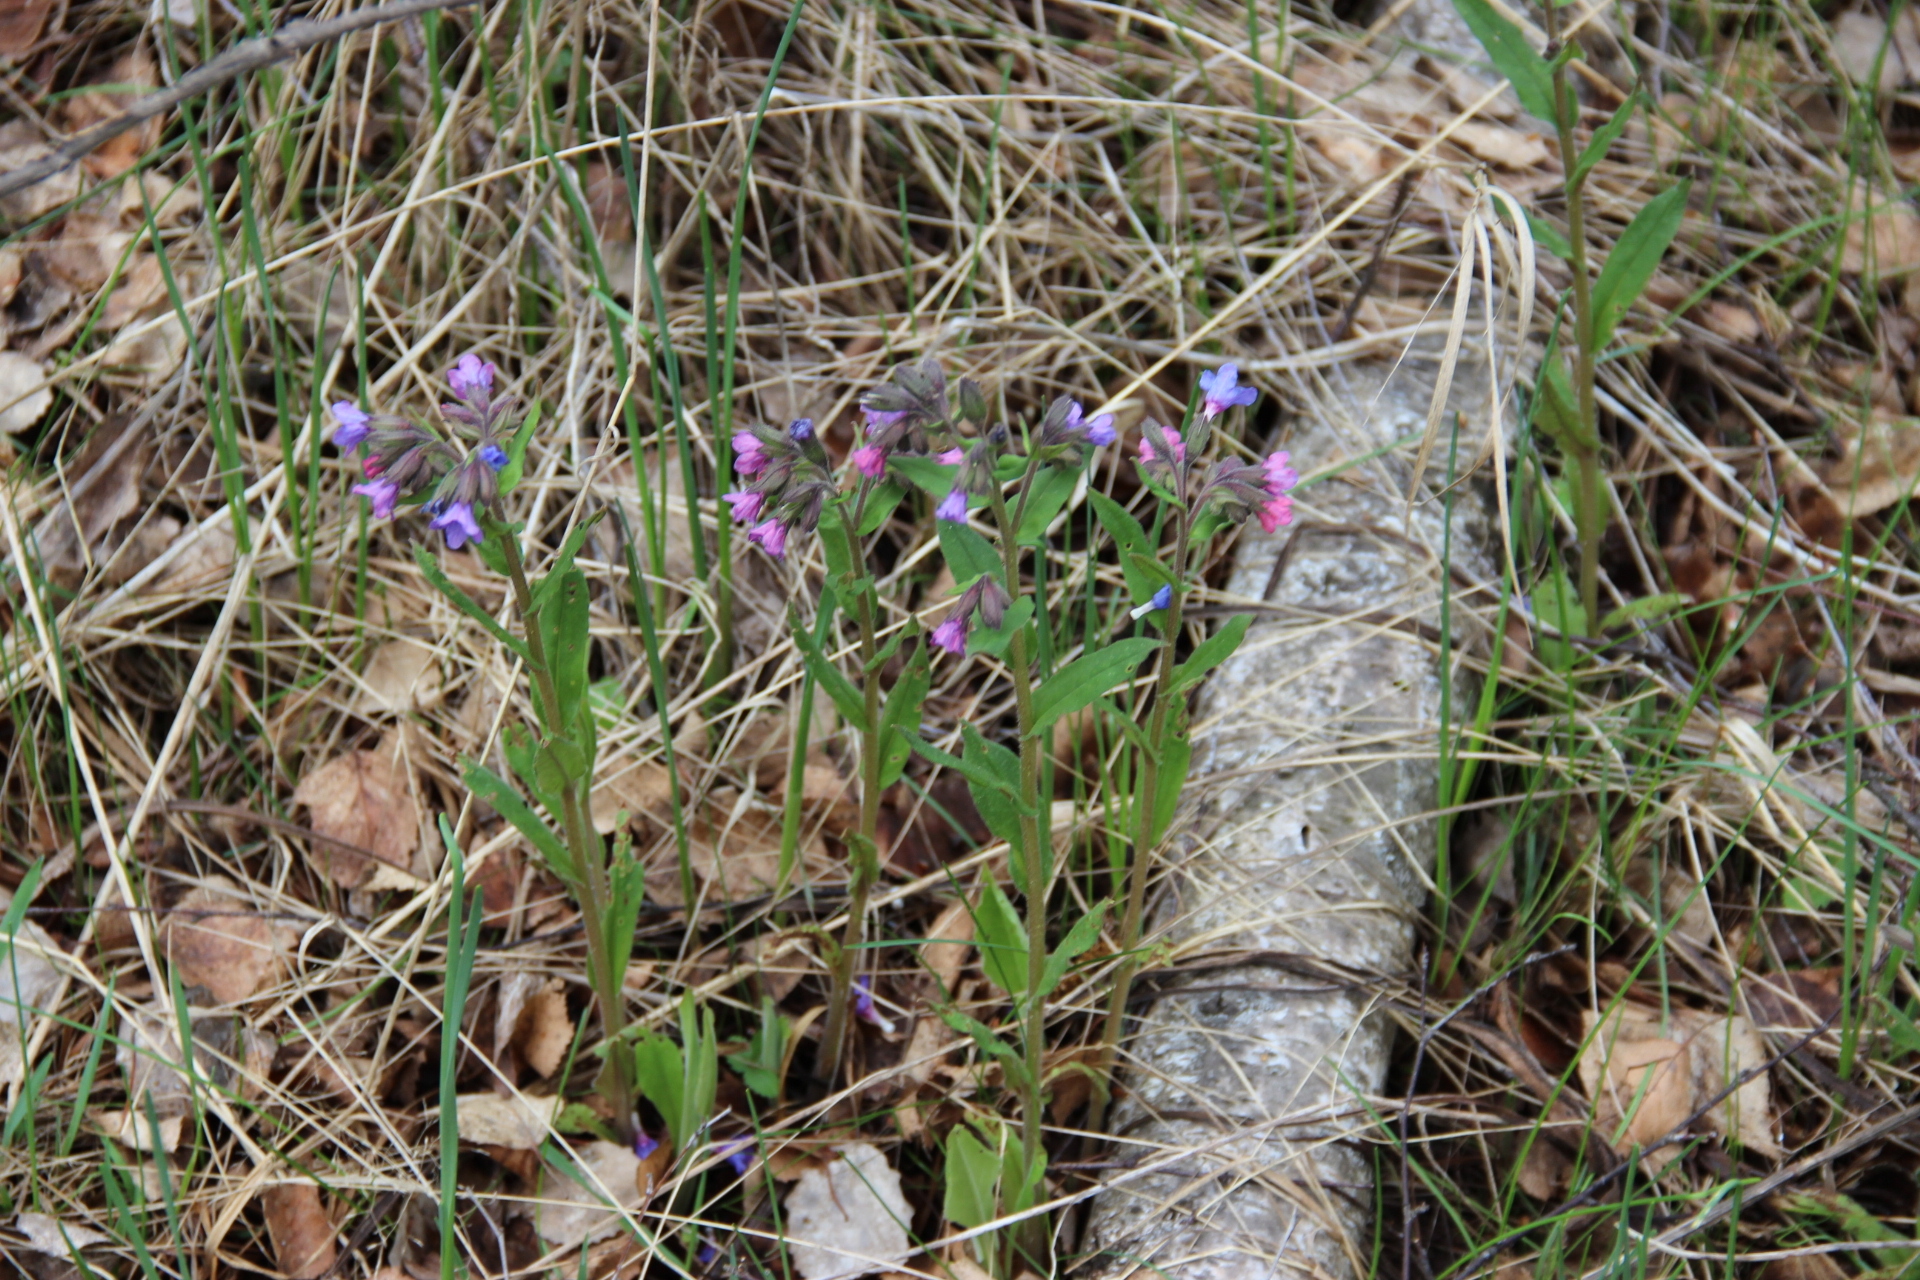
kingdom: Plantae
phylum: Tracheophyta
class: Magnoliopsida
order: Boraginales
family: Boraginaceae
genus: Pulmonaria
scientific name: Pulmonaria angustifolia
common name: Blue cowslip
